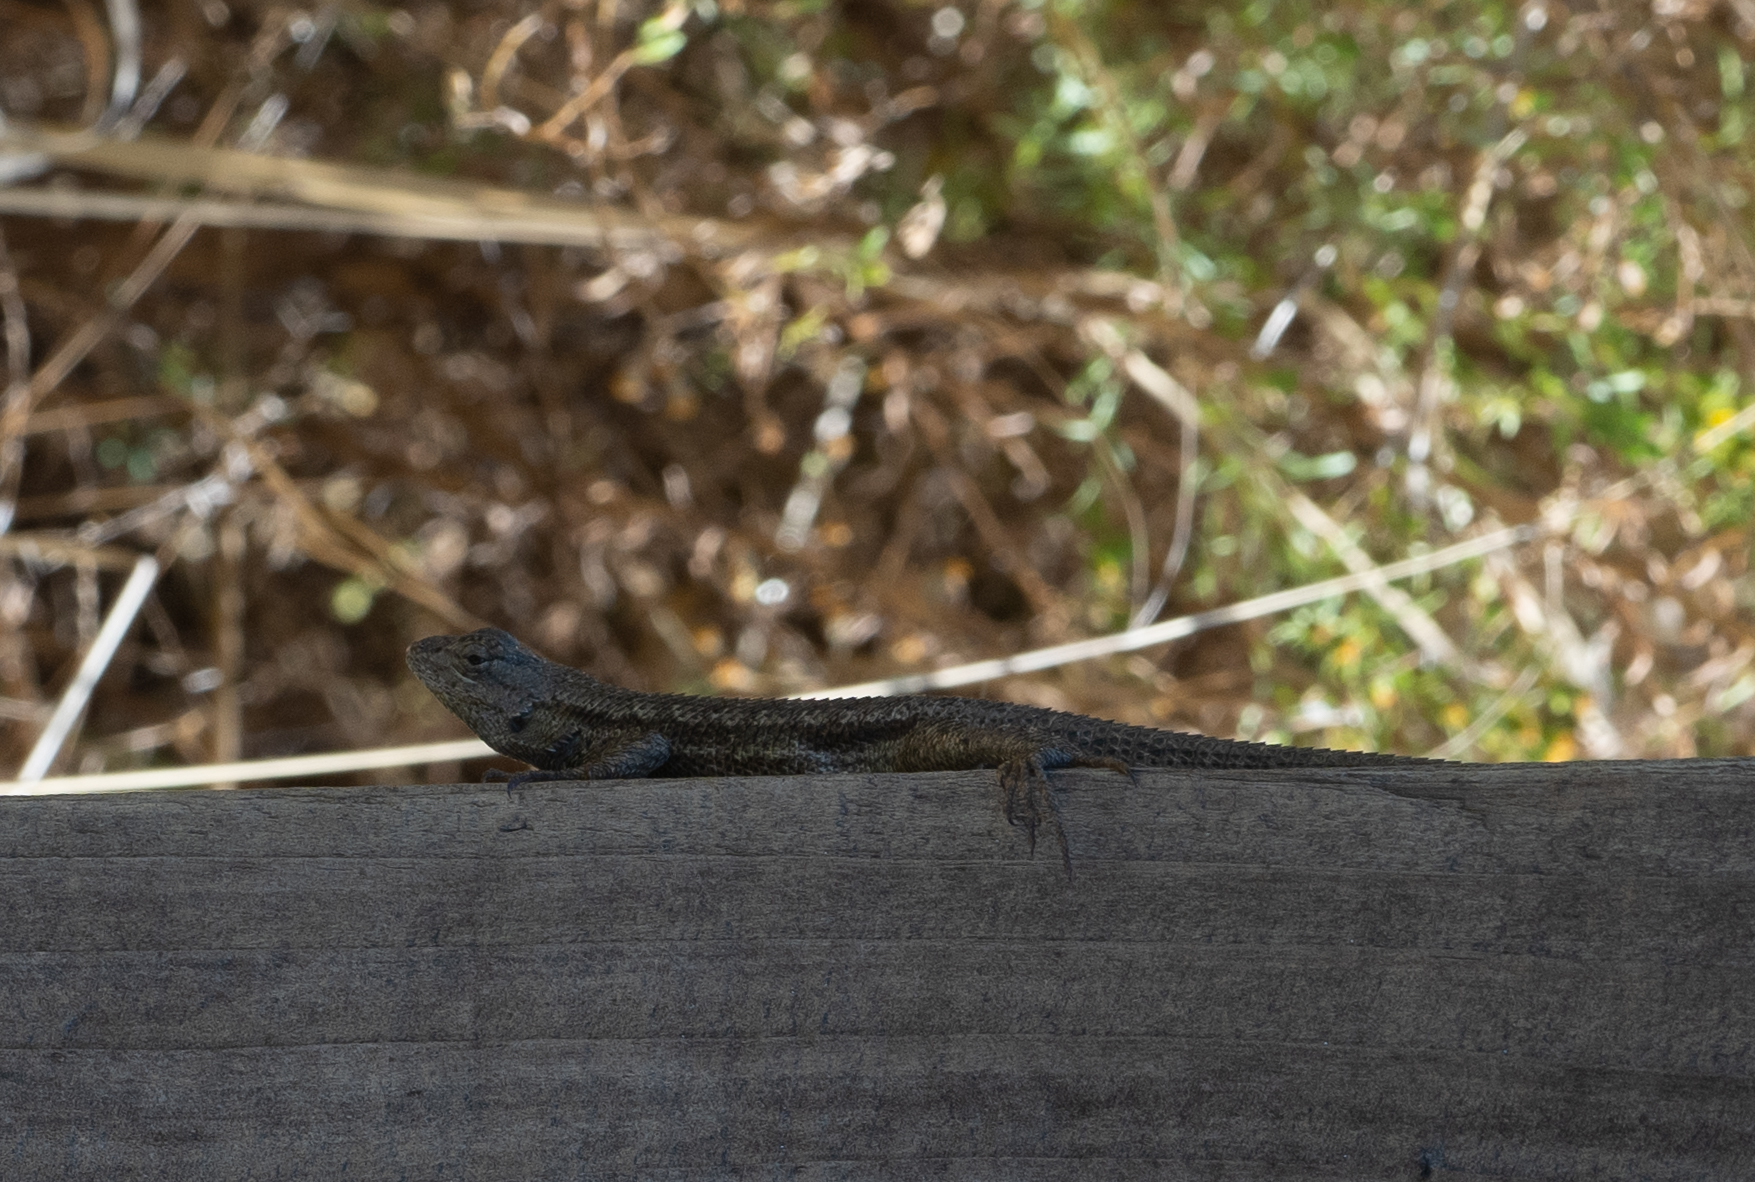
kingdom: Animalia
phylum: Chordata
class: Squamata
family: Phrynosomatidae
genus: Sceloporus
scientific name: Sceloporus occidentalis
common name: Western fence lizard
